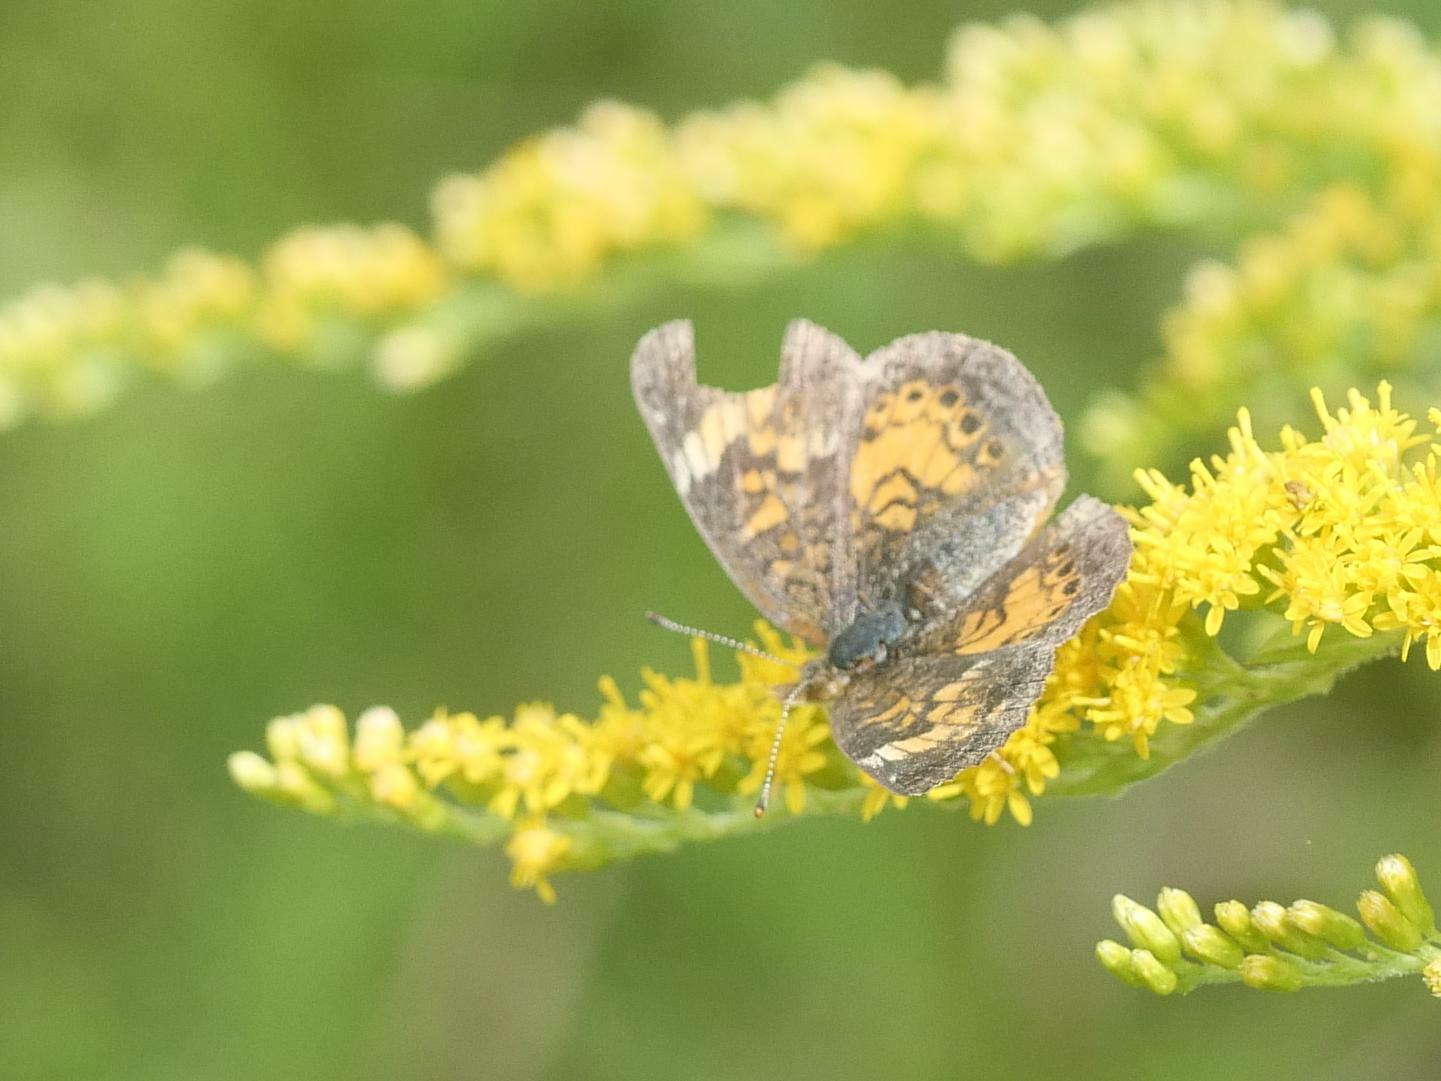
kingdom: Animalia
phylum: Arthropoda
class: Insecta
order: Lepidoptera
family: Nymphalidae
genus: Phyciodes
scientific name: Phyciodes tharos
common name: Pearl crescent
